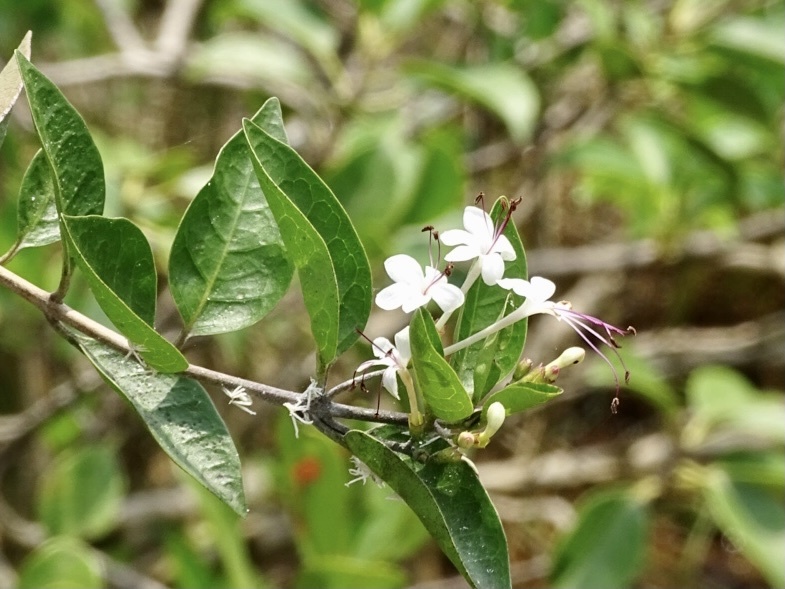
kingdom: Plantae
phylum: Tracheophyta
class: Magnoliopsida
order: Lamiales
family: Lamiaceae
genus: Volkameria
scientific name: Volkameria inermis
